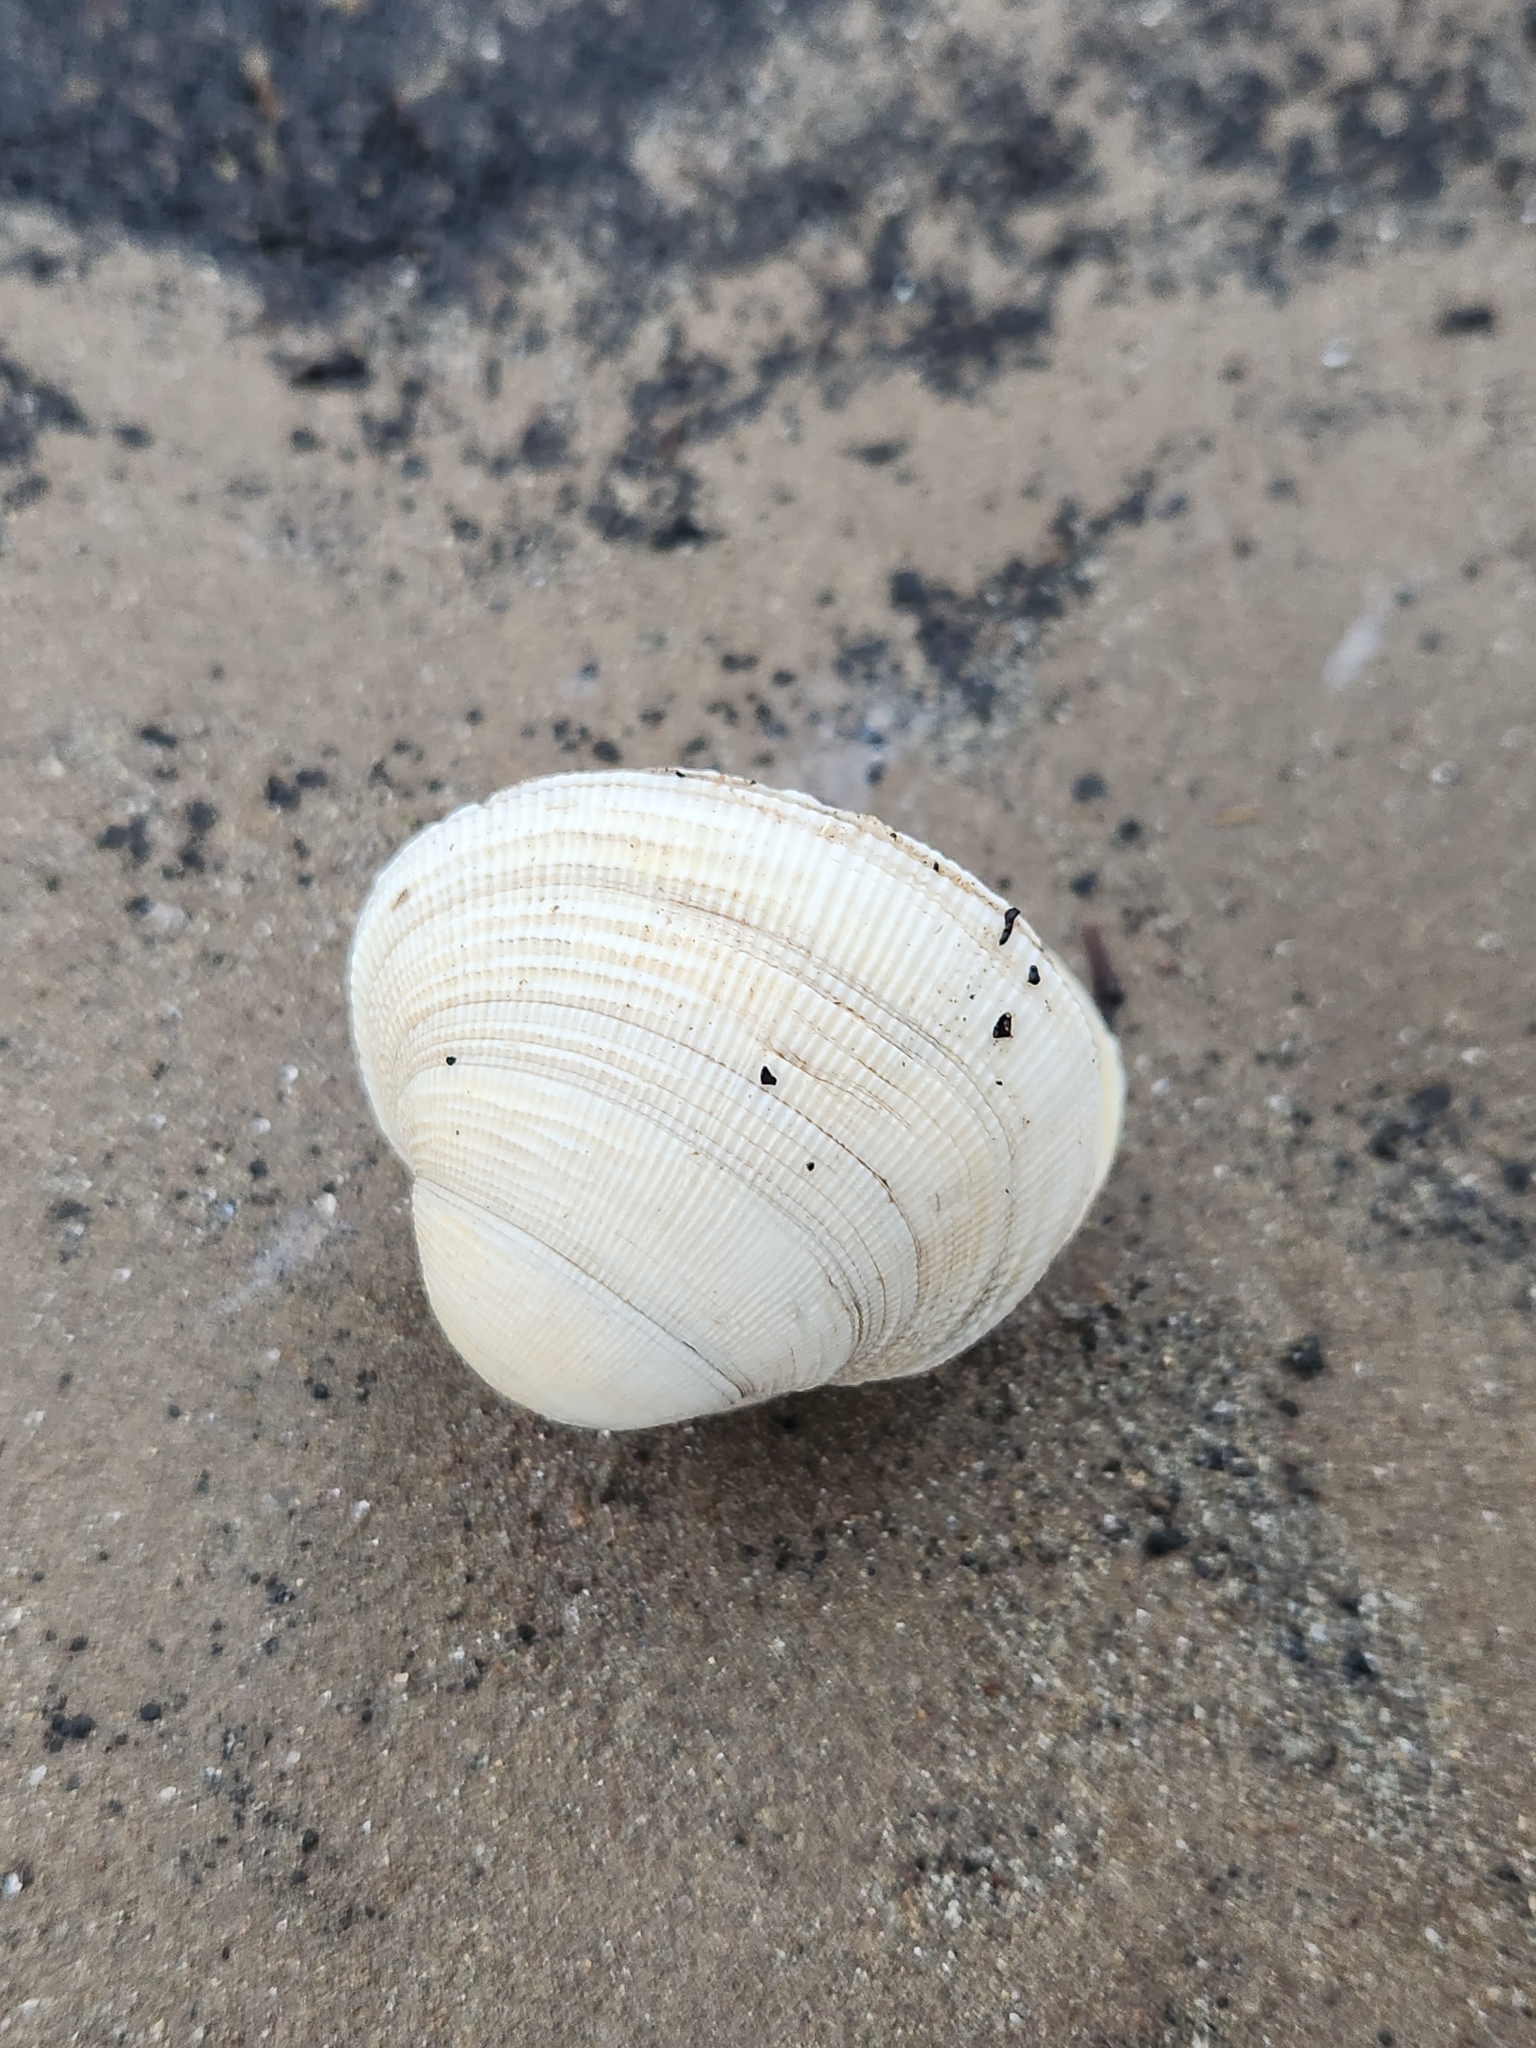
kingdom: Animalia
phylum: Mollusca
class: Bivalvia
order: Venerida
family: Veneridae
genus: Leukoma
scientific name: Leukoma staminea
